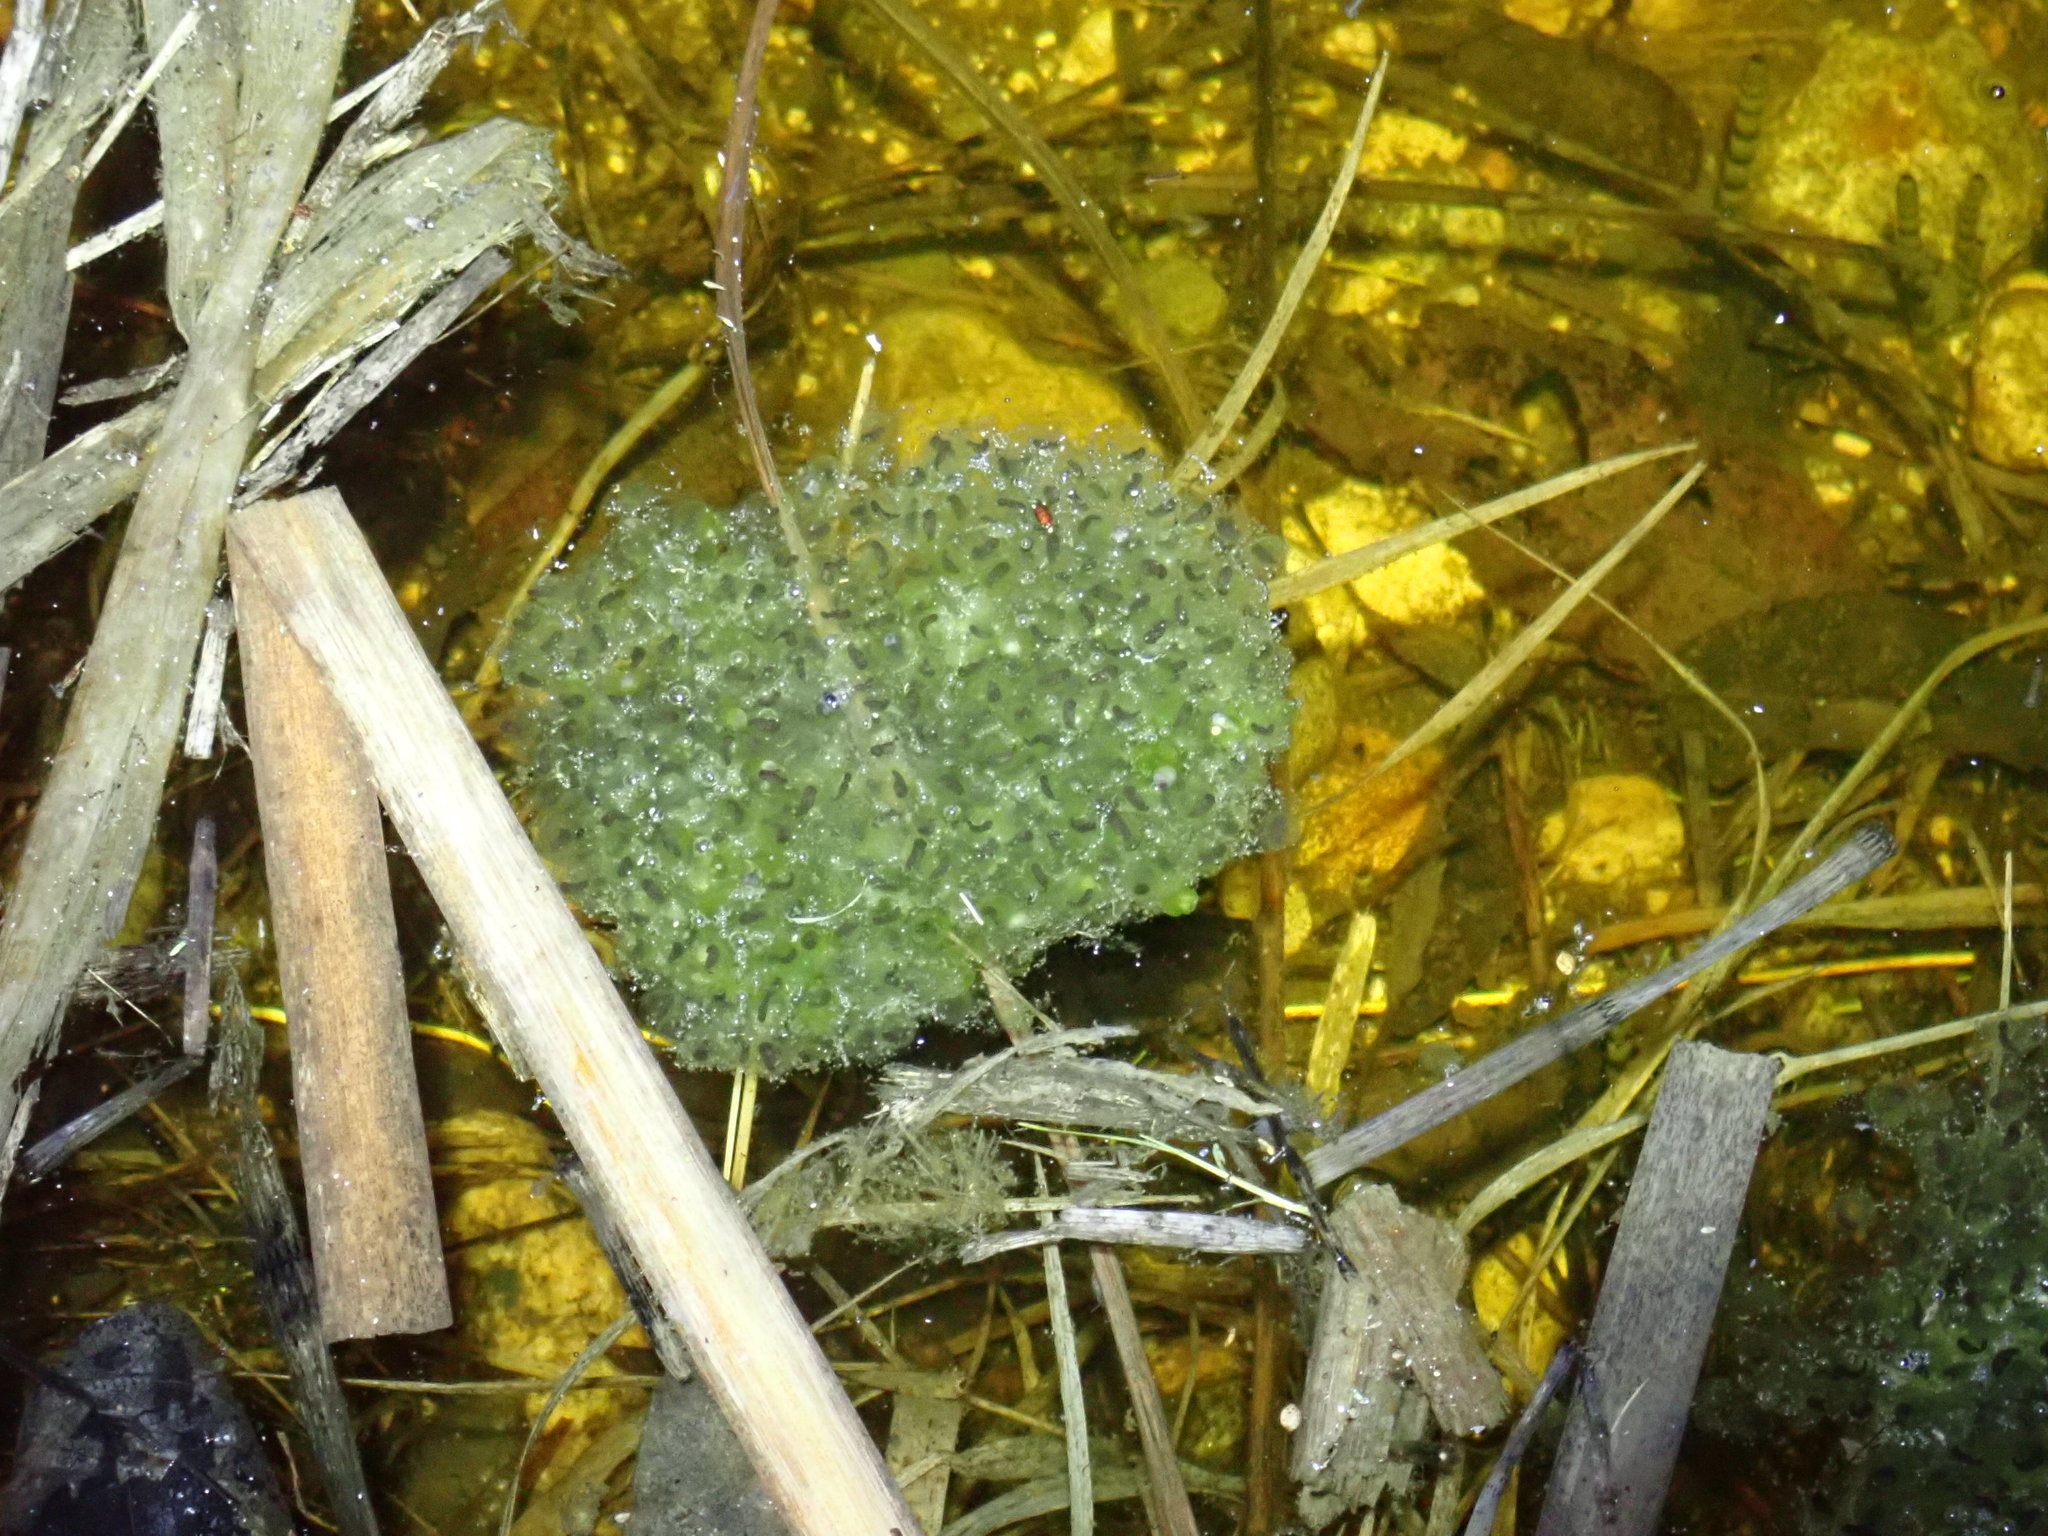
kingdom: Animalia
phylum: Chordata
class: Amphibia
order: Anura
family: Ranidae
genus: Lithobates
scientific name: Lithobates sylvaticus
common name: Wood frog
